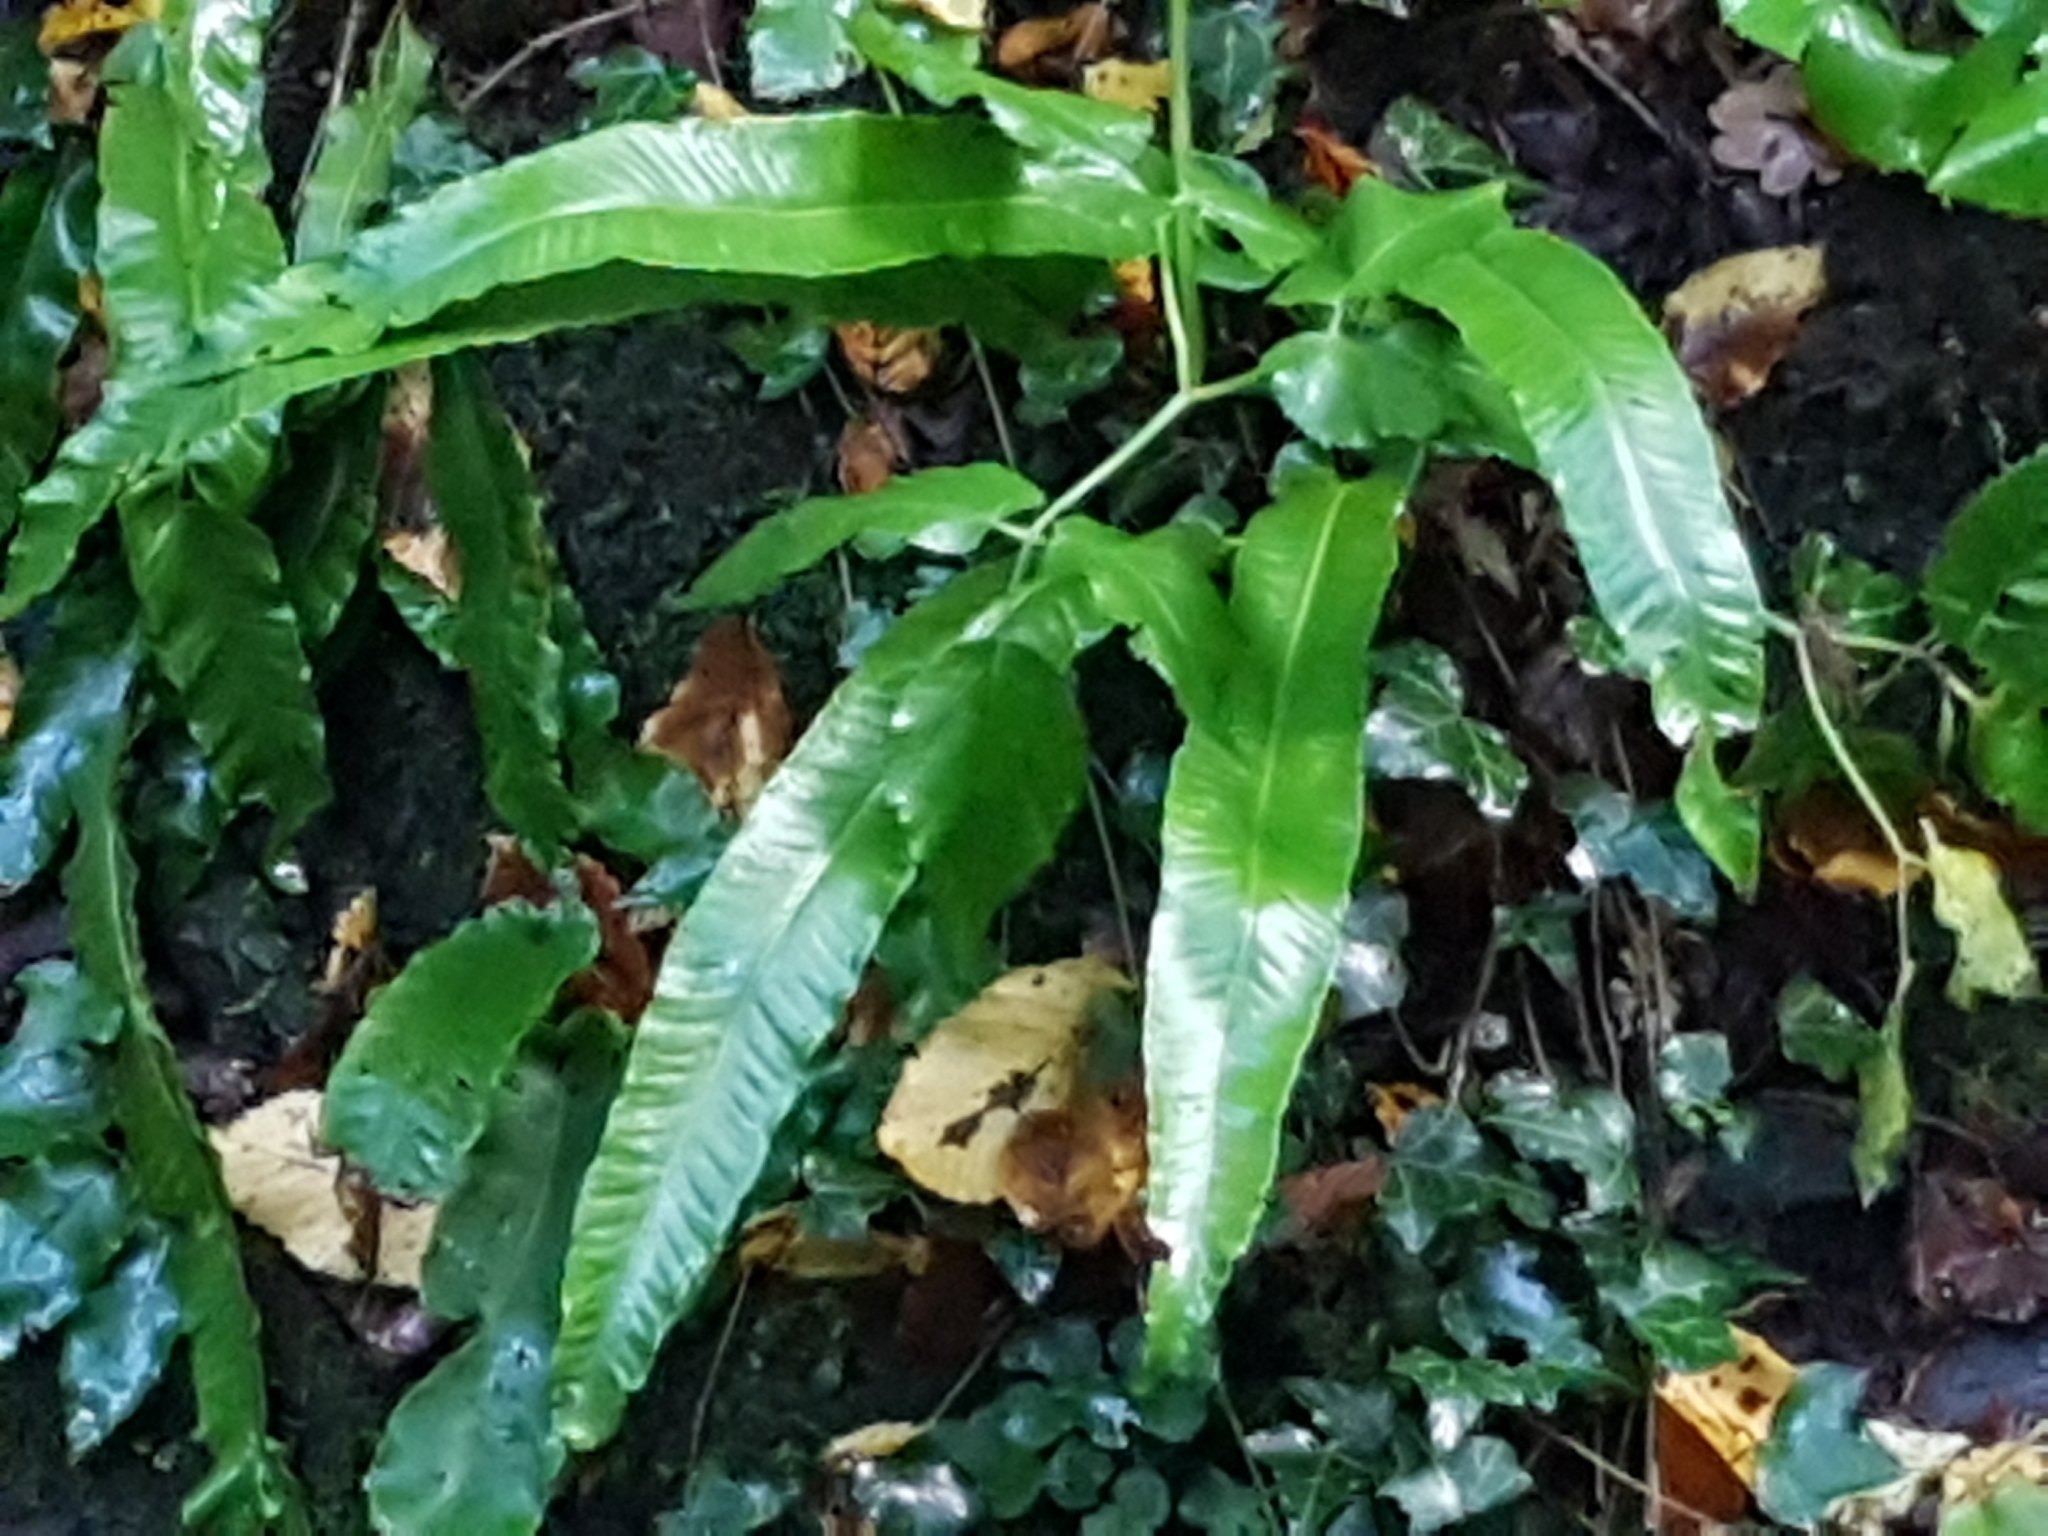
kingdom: Plantae
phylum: Tracheophyta
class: Polypodiopsida
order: Polypodiales
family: Aspleniaceae
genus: Asplenium
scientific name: Asplenium scolopendrium
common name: Hart's-tongue fern
